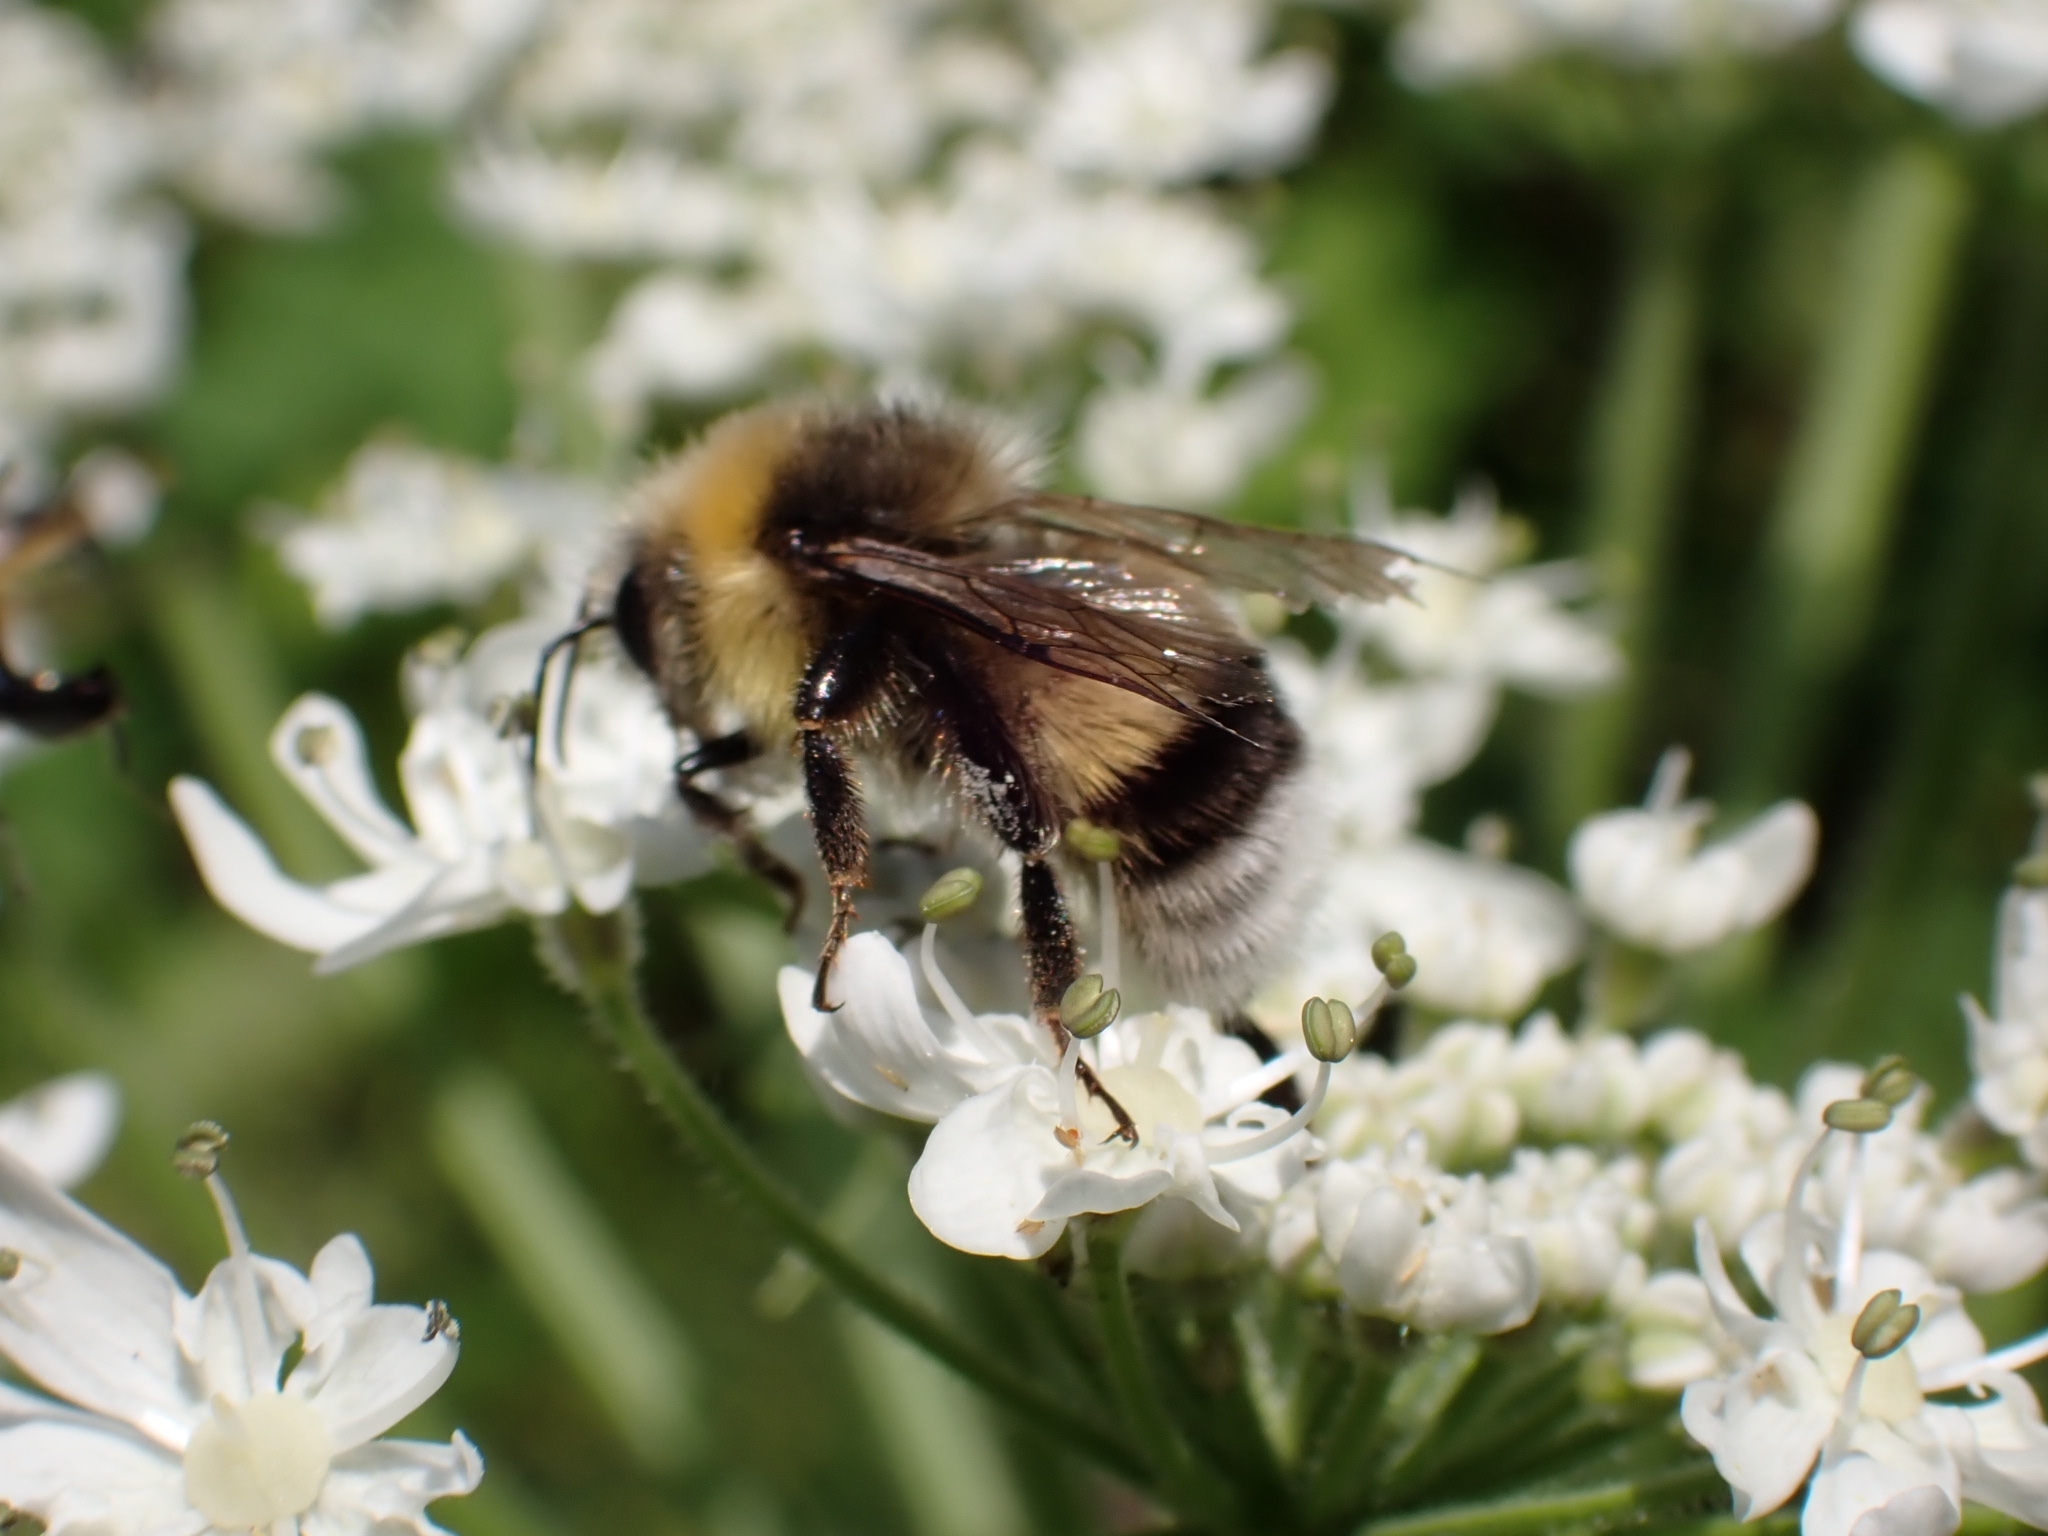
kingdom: Animalia
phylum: Arthropoda
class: Insecta
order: Hymenoptera
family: Apidae
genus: Bombus
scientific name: Bombus lucorum
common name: White-tailed bumblebee
